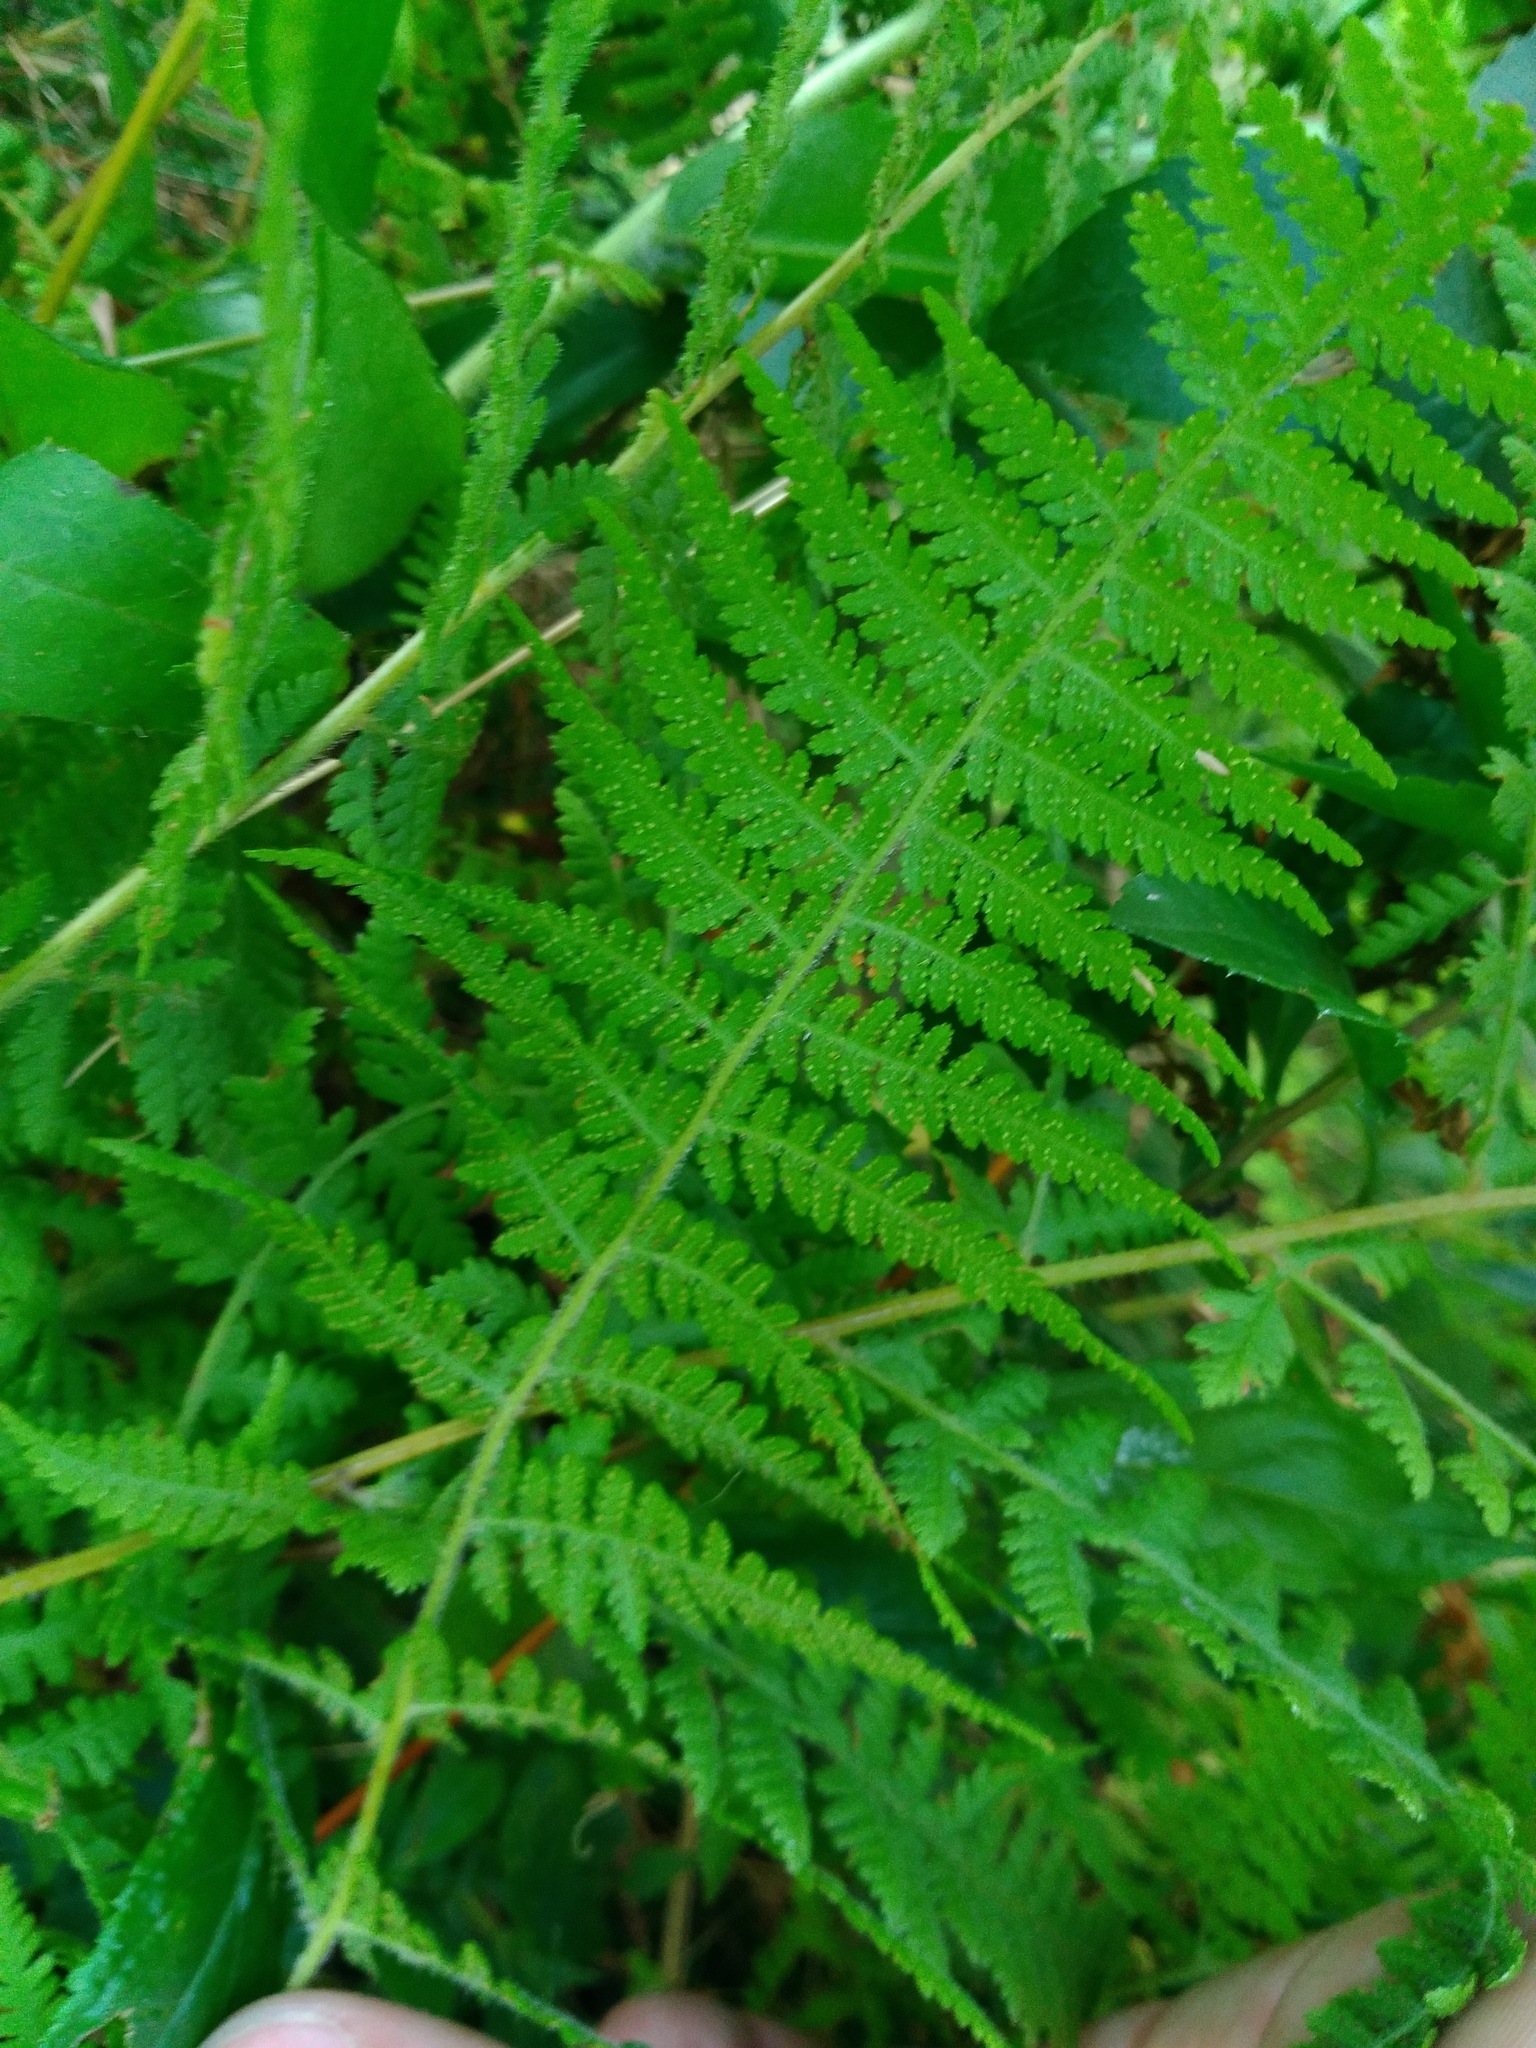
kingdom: Plantae
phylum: Tracheophyta
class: Polypodiopsida
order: Polypodiales
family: Dennstaedtiaceae
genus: Sitobolium
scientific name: Sitobolium punctilobum
